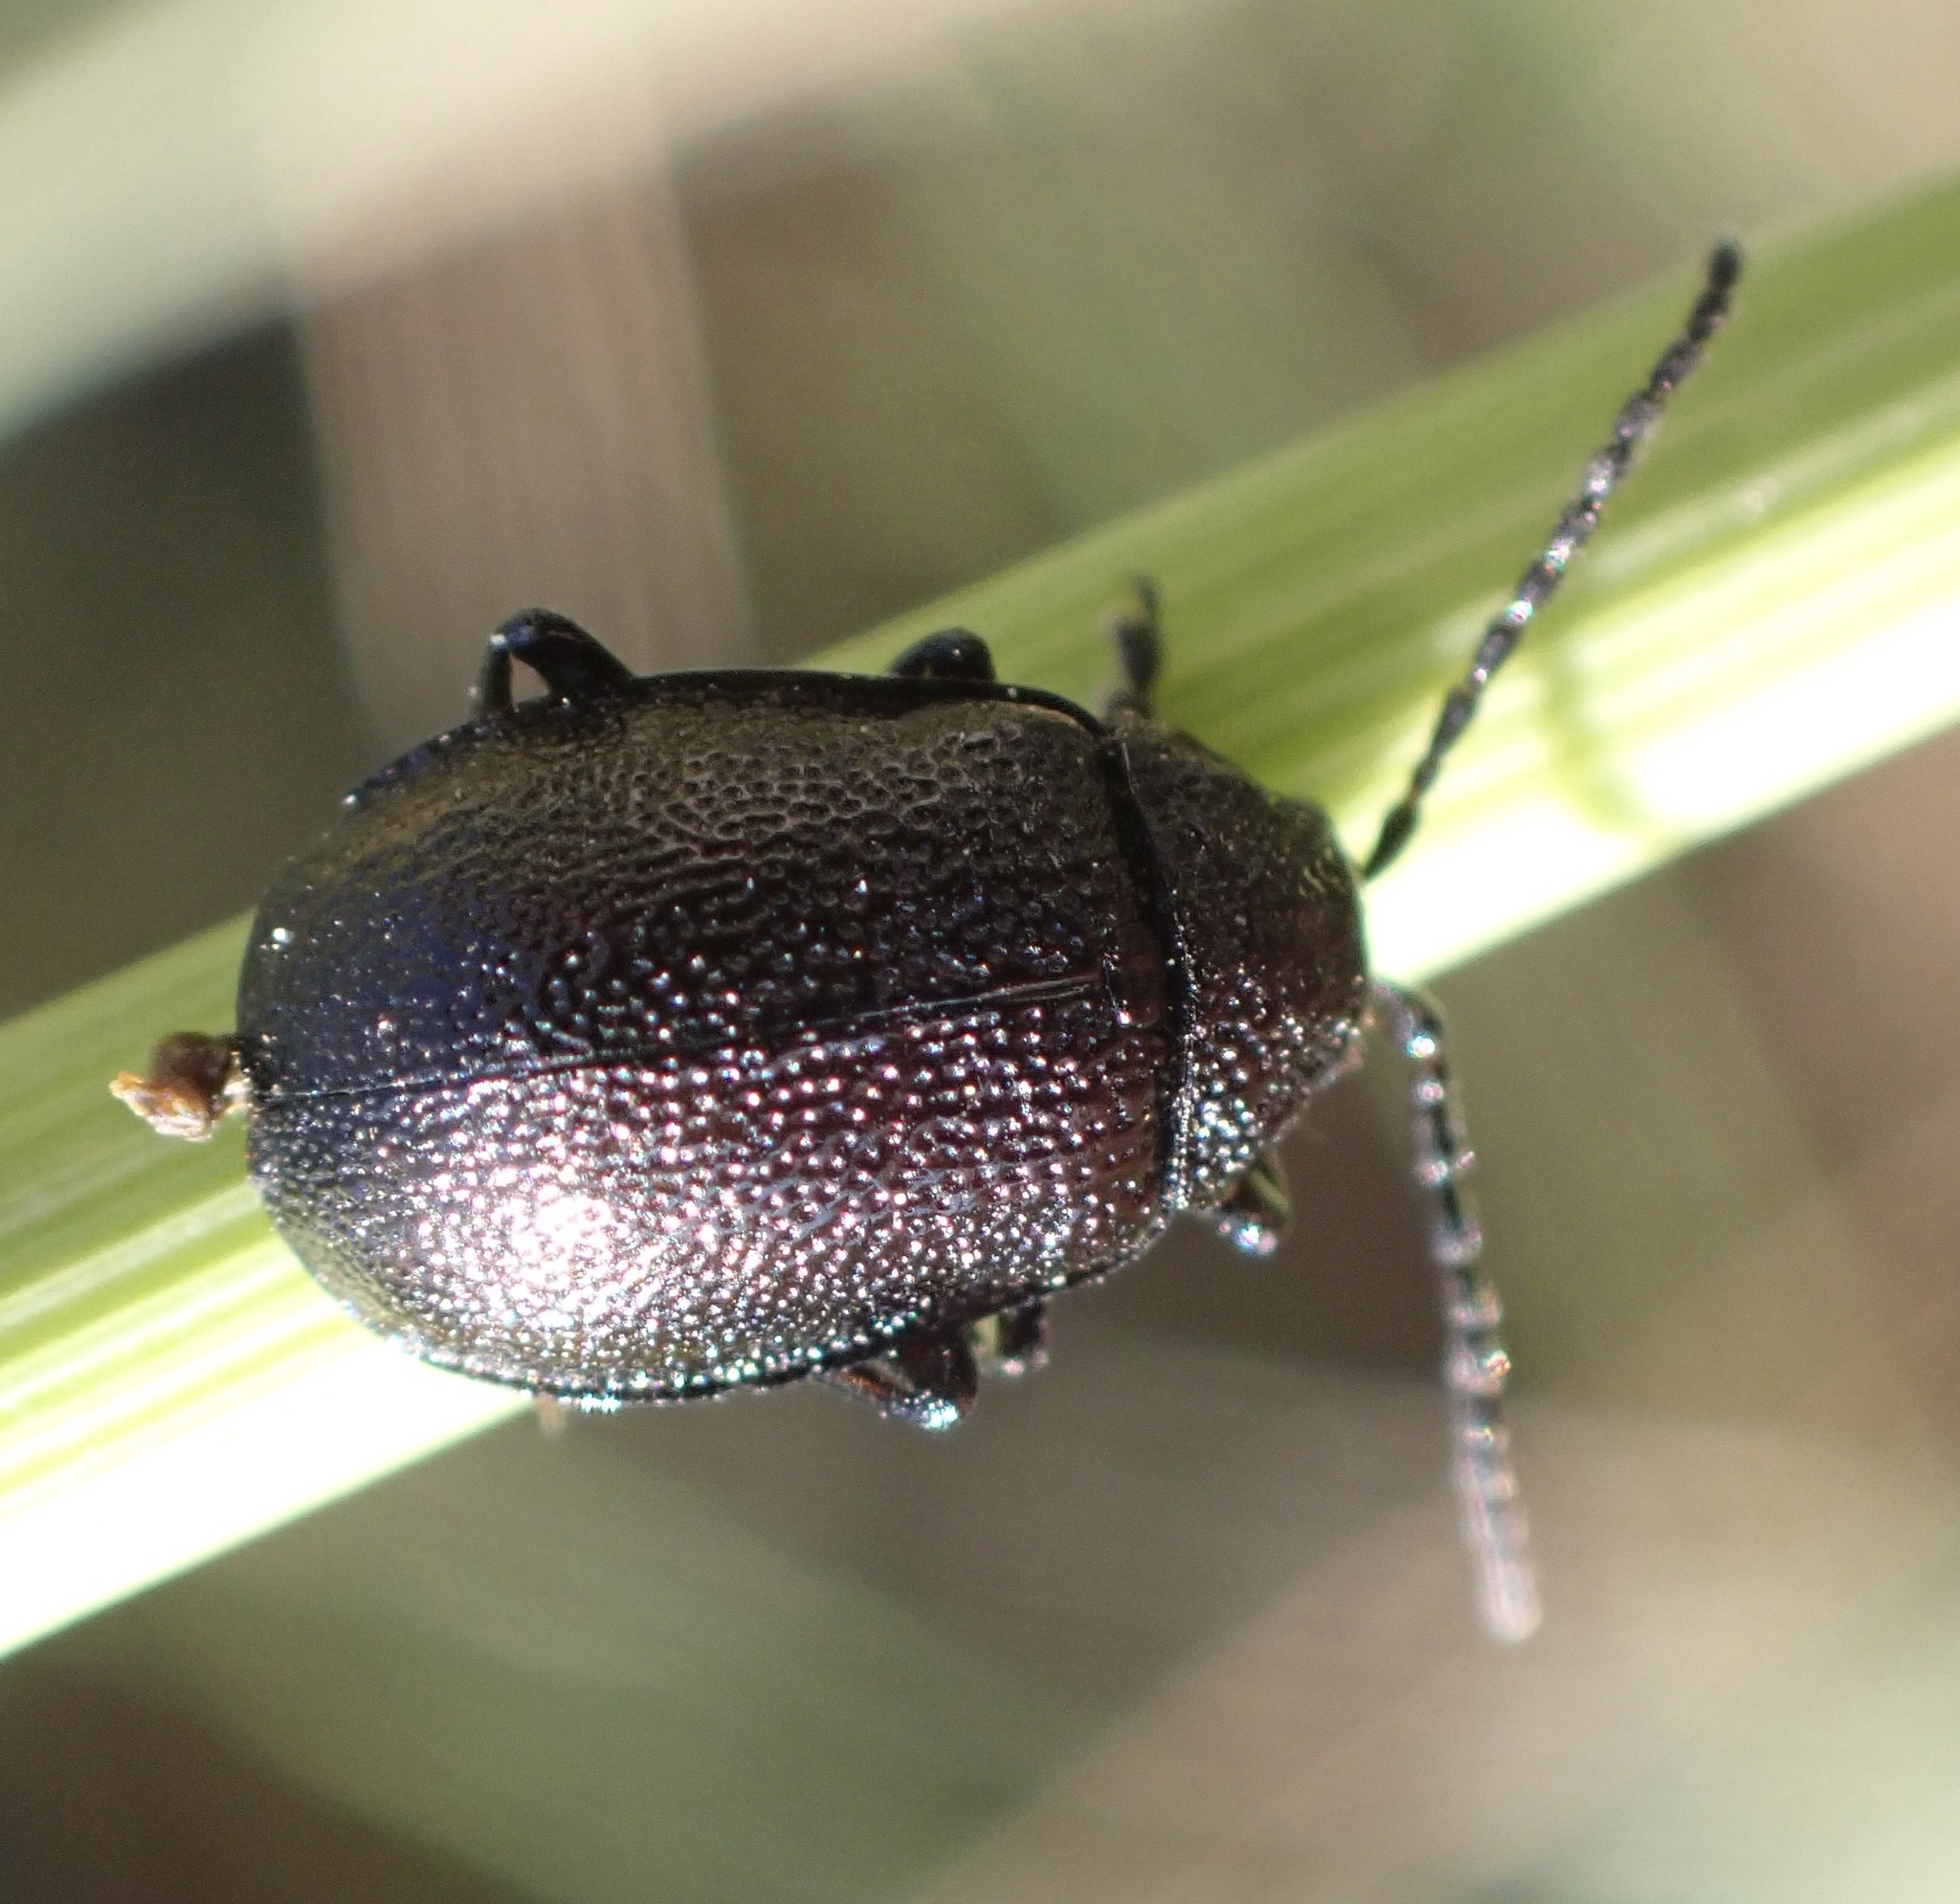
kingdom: Animalia
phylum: Arthropoda
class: Insecta
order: Coleoptera
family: Chrysomelidae
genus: Galeruca
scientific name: Galeruca tanaceti
